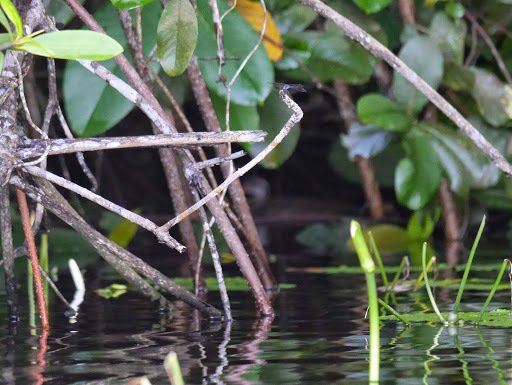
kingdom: Animalia
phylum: Chordata
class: Aves
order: Gruiformes
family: Heliornithidae
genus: Podica
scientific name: Podica senegalensis
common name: African finfoot
